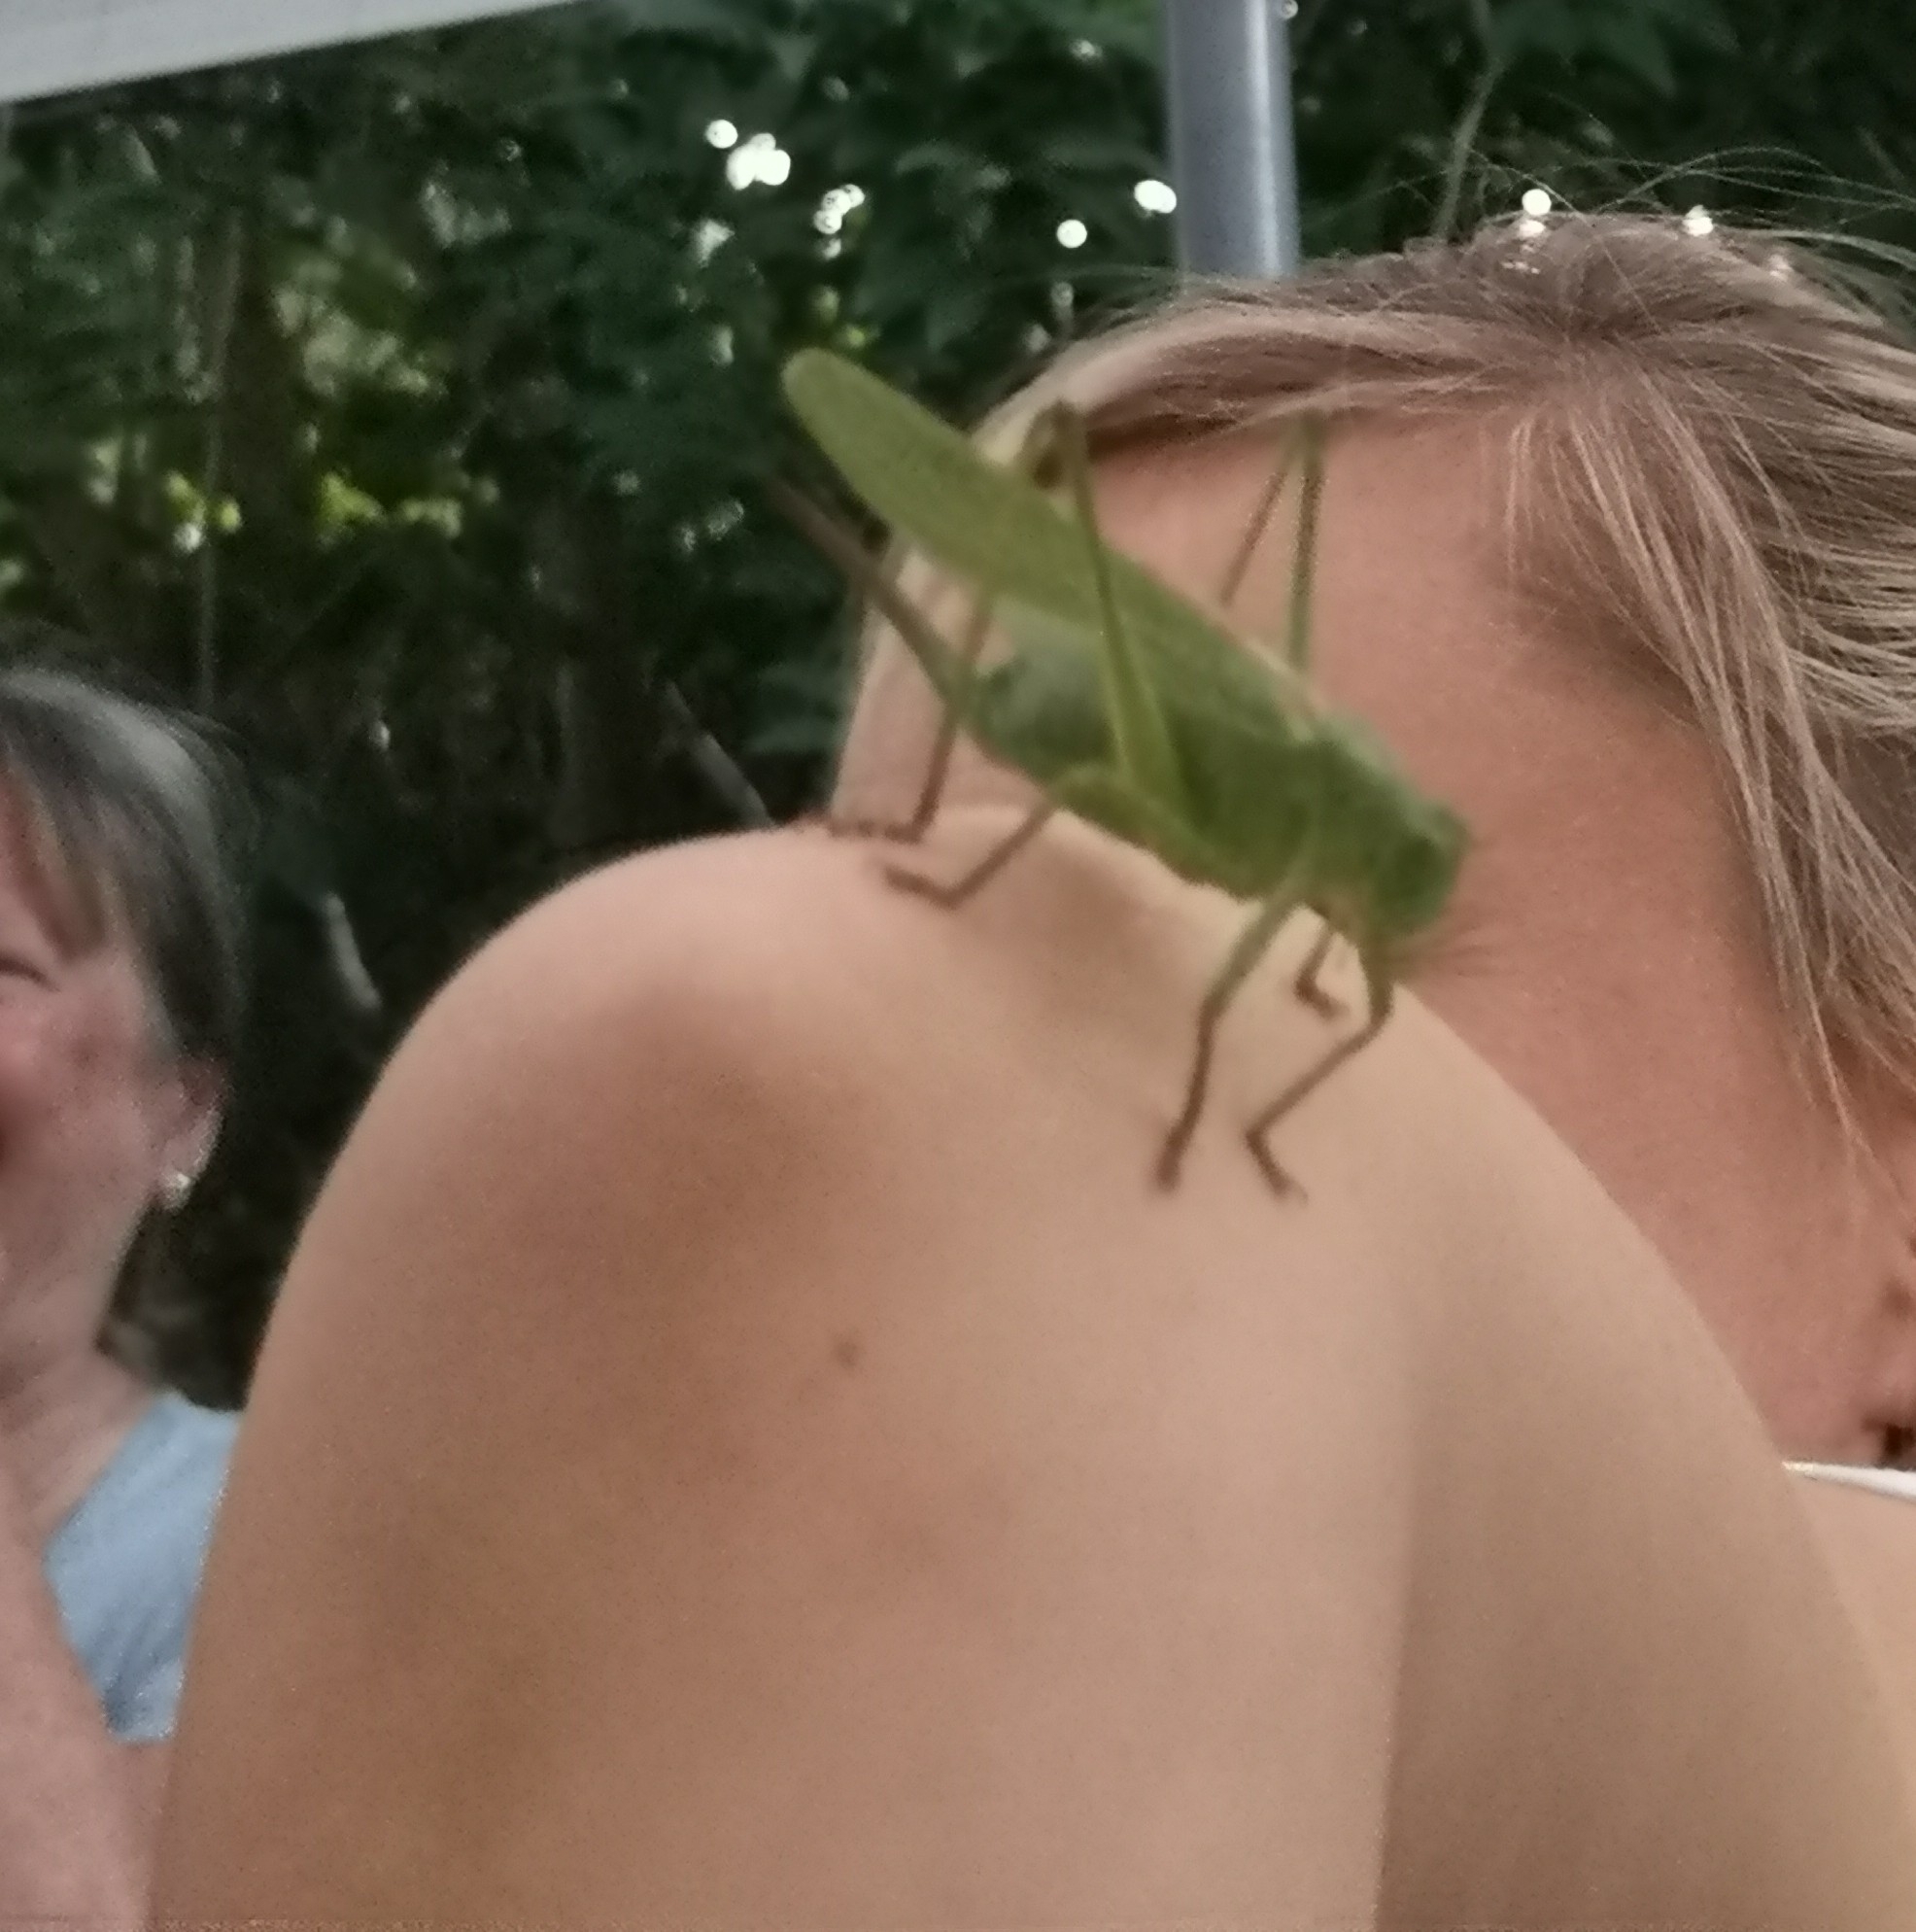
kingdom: Animalia
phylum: Arthropoda
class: Insecta
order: Orthoptera
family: Tettigoniidae
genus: Tettigonia
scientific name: Tettigonia viridissima
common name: Great green bush-cricket
